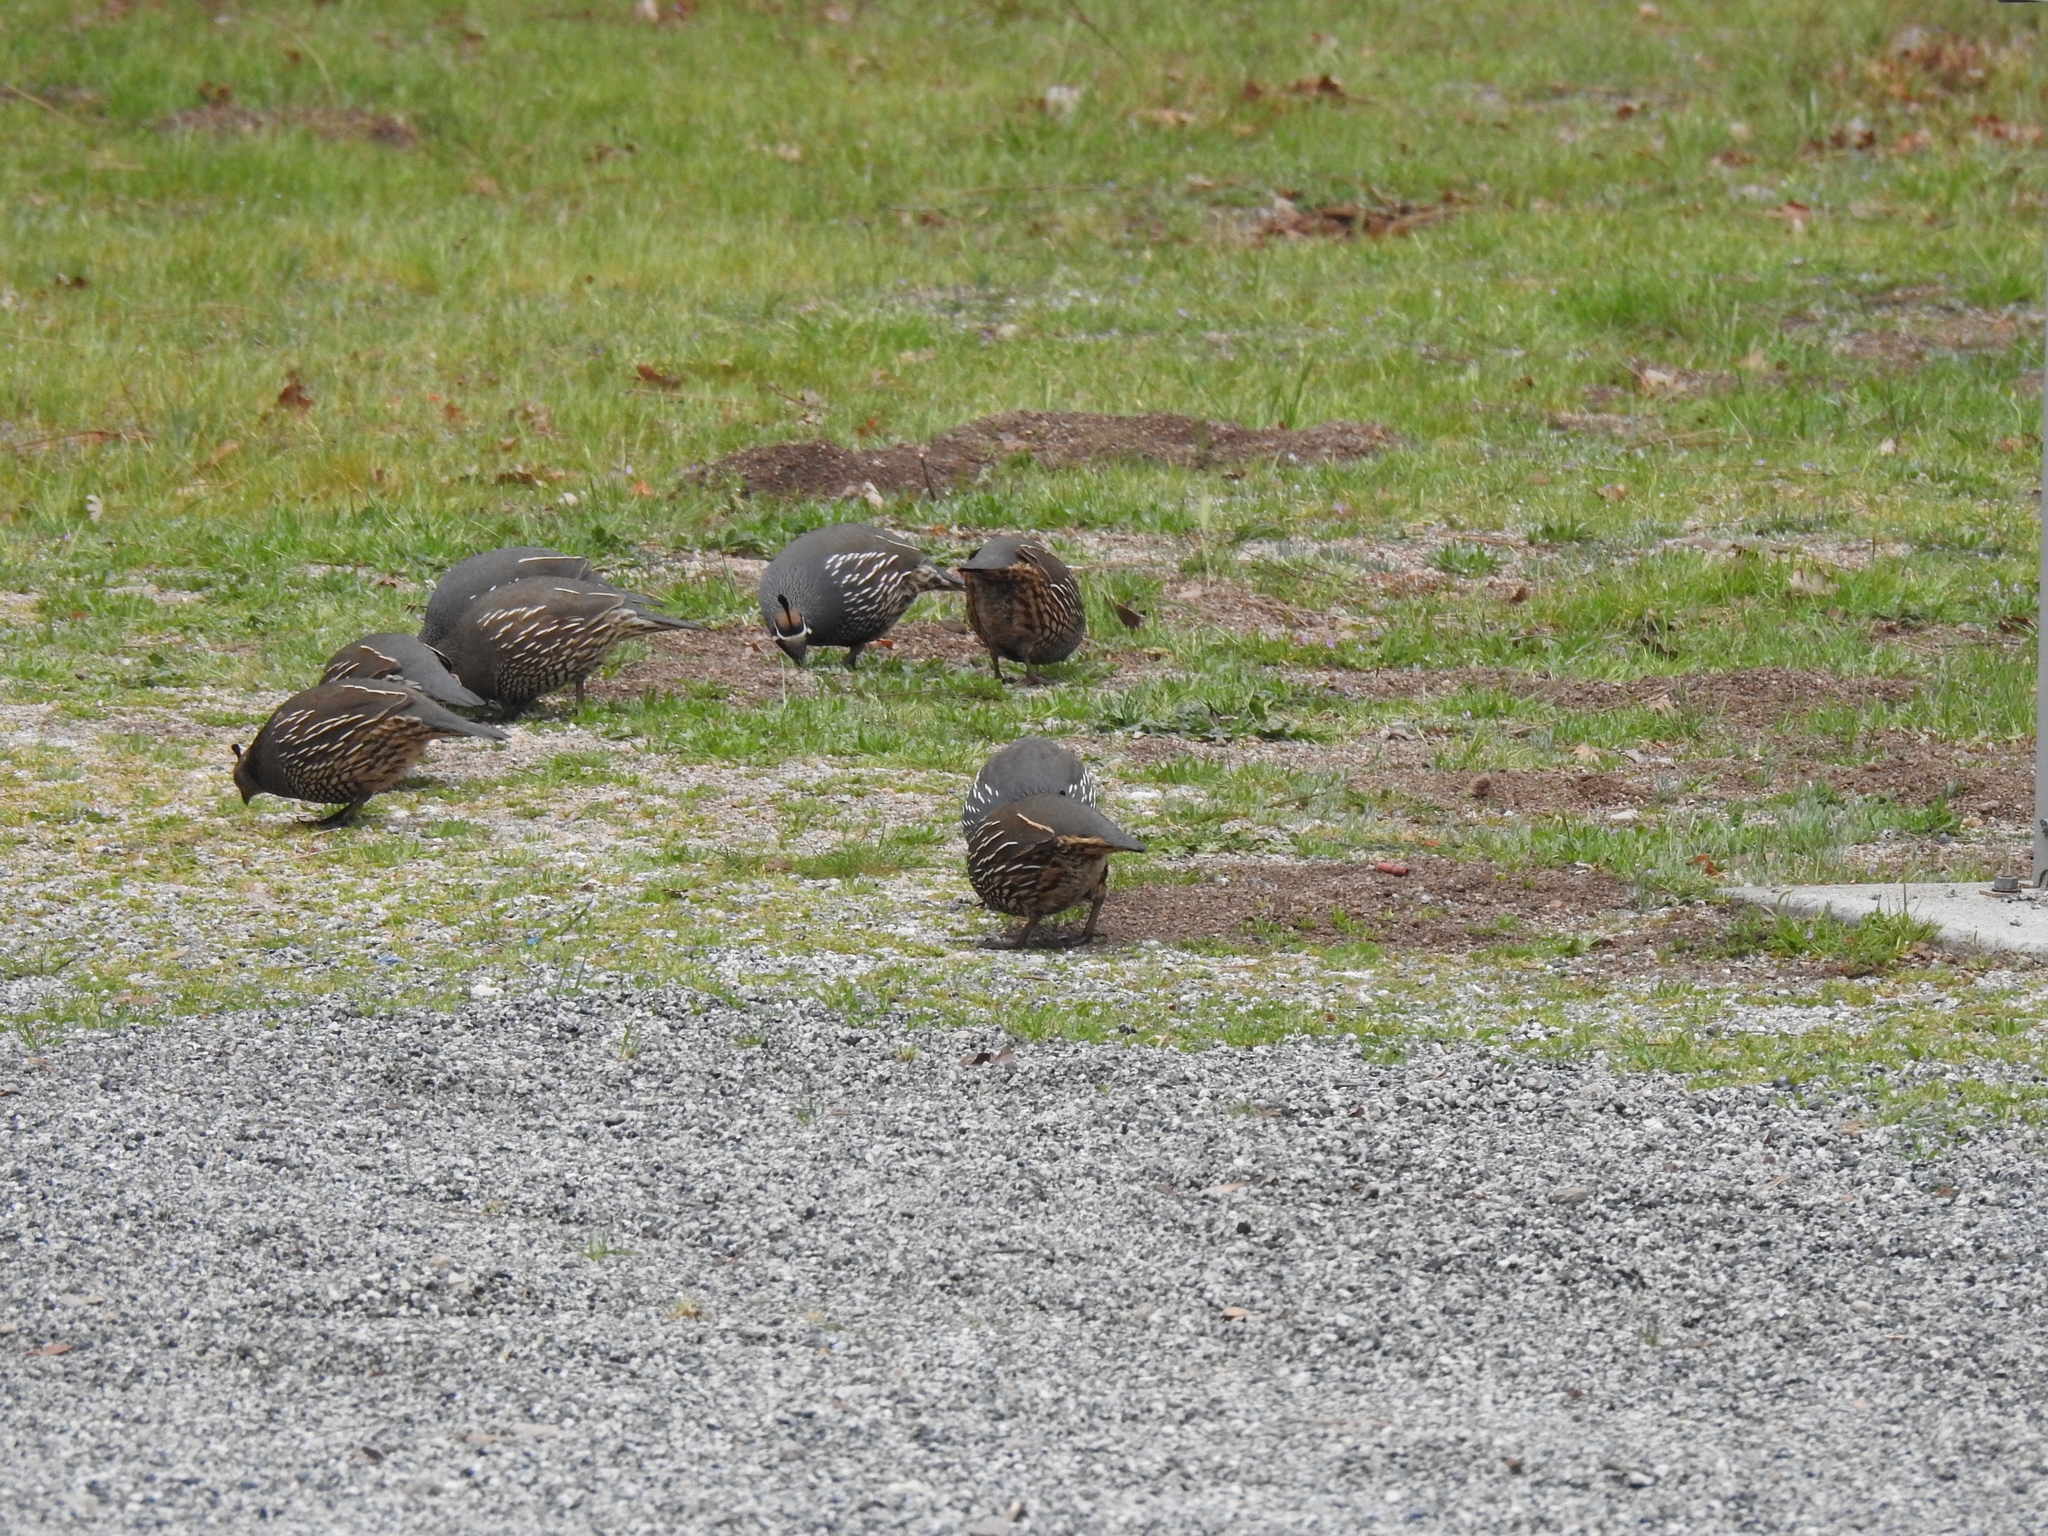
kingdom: Animalia
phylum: Chordata
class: Aves
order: Galliformes
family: Odontophoridae
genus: Callipepla
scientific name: Callipepla californica
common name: California quail
